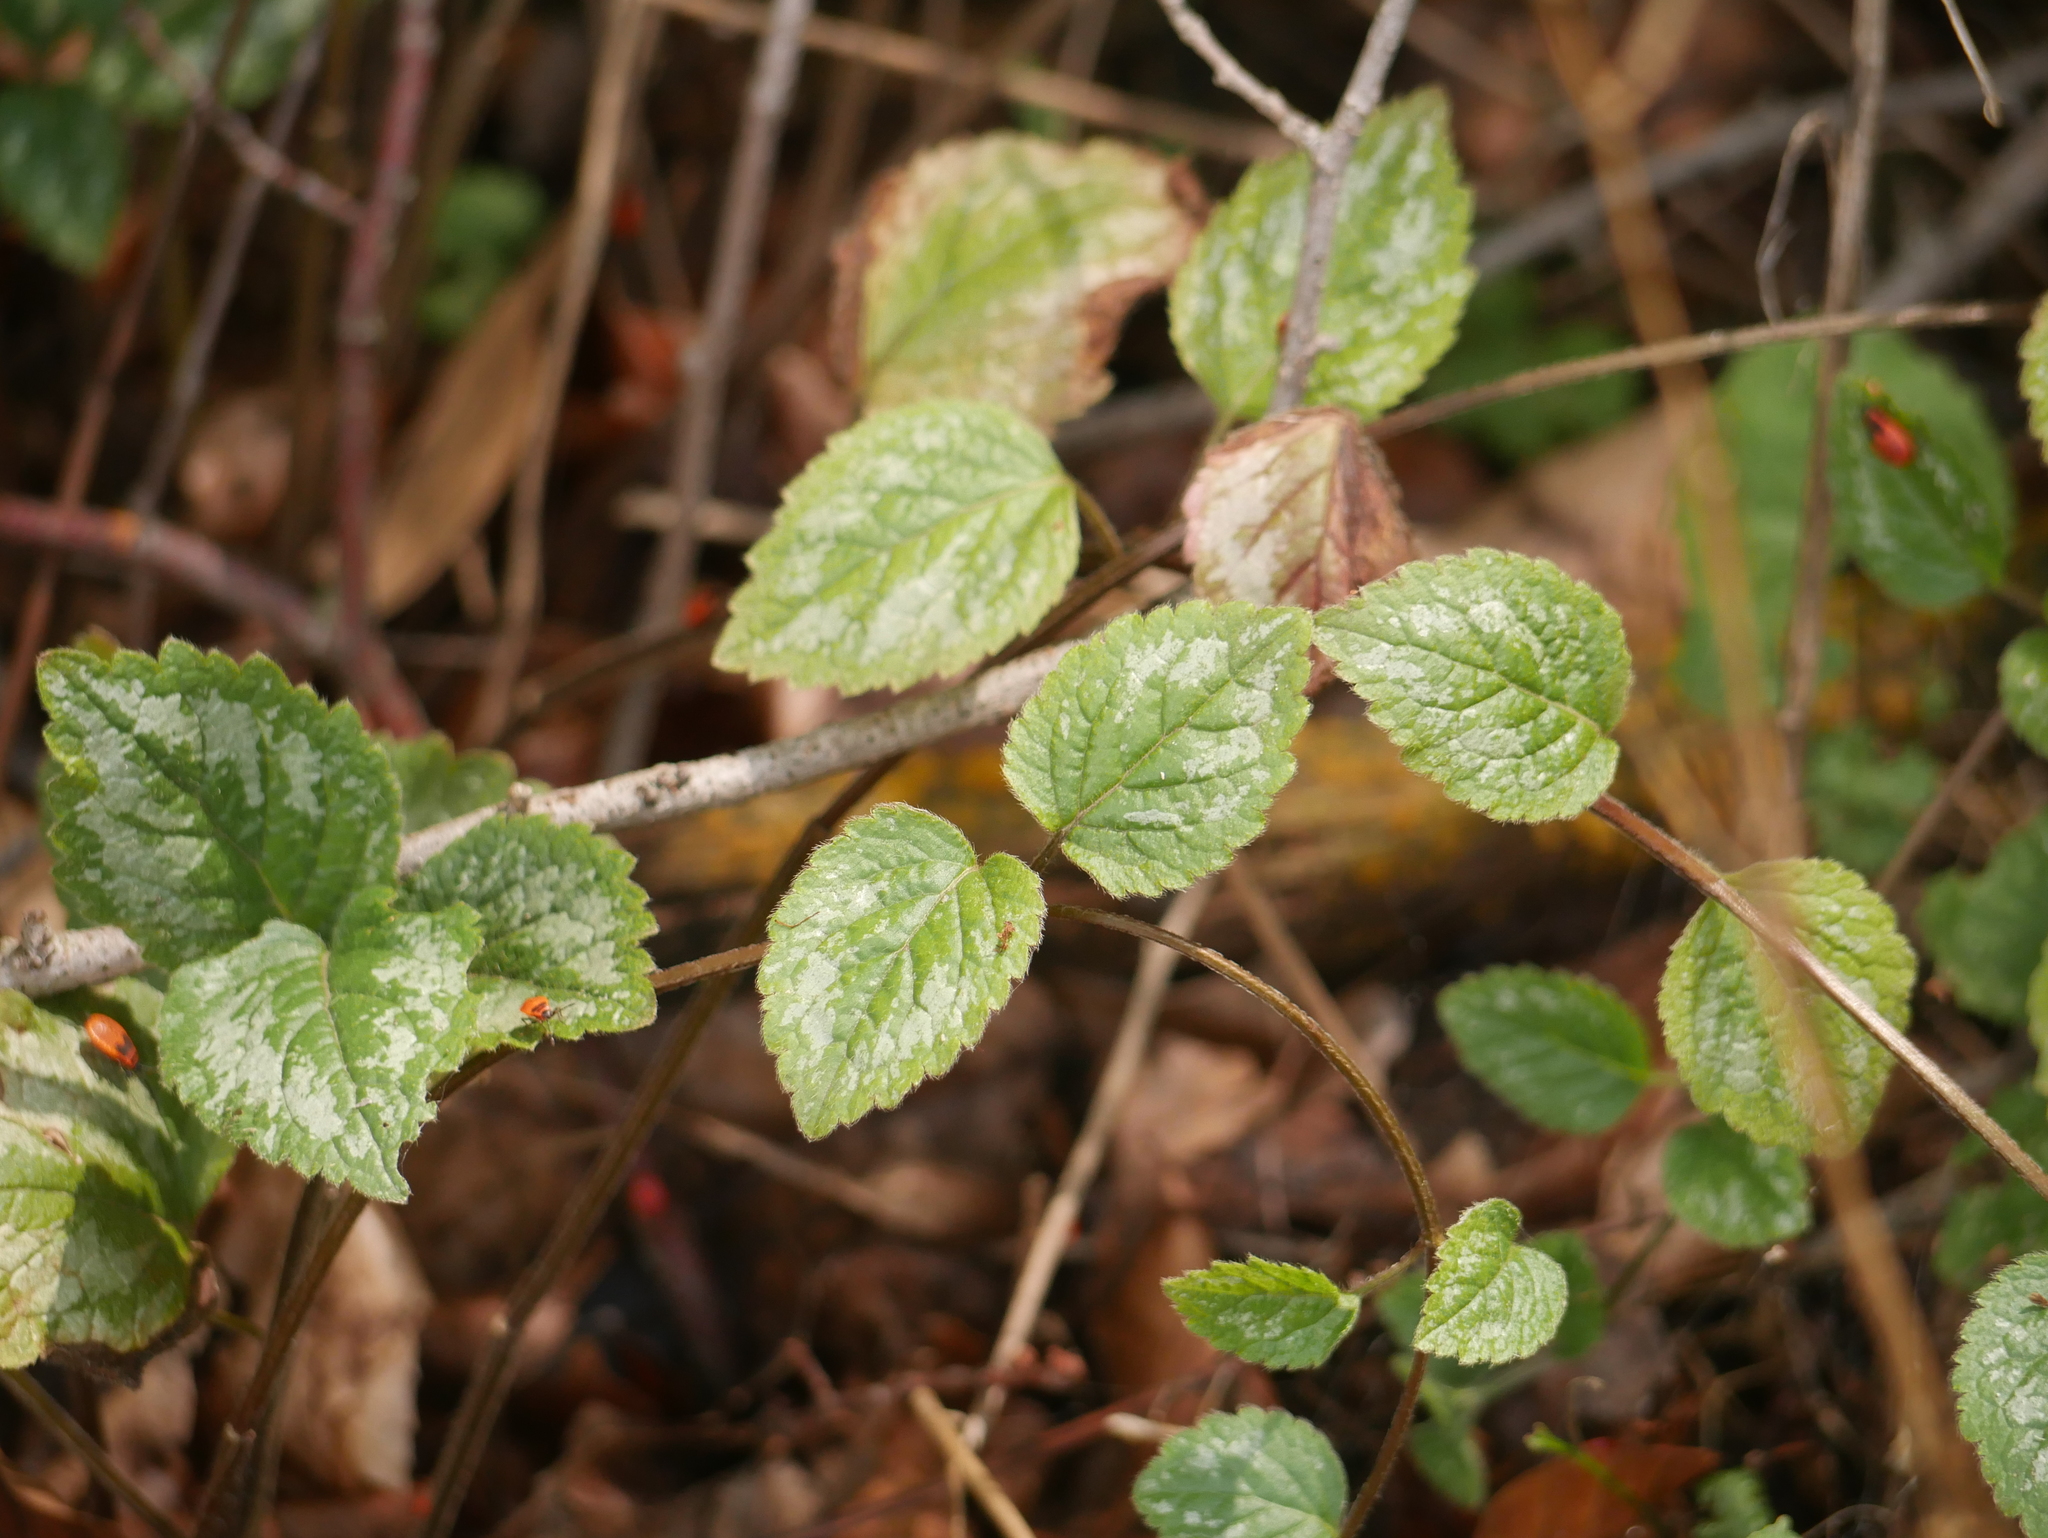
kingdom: Plantae
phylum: Tracheophyta
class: Magnoliopsida
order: Lamiales
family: Lamiaceae
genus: Lamium
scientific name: Lamium galeobdolon
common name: Yellow archangel
